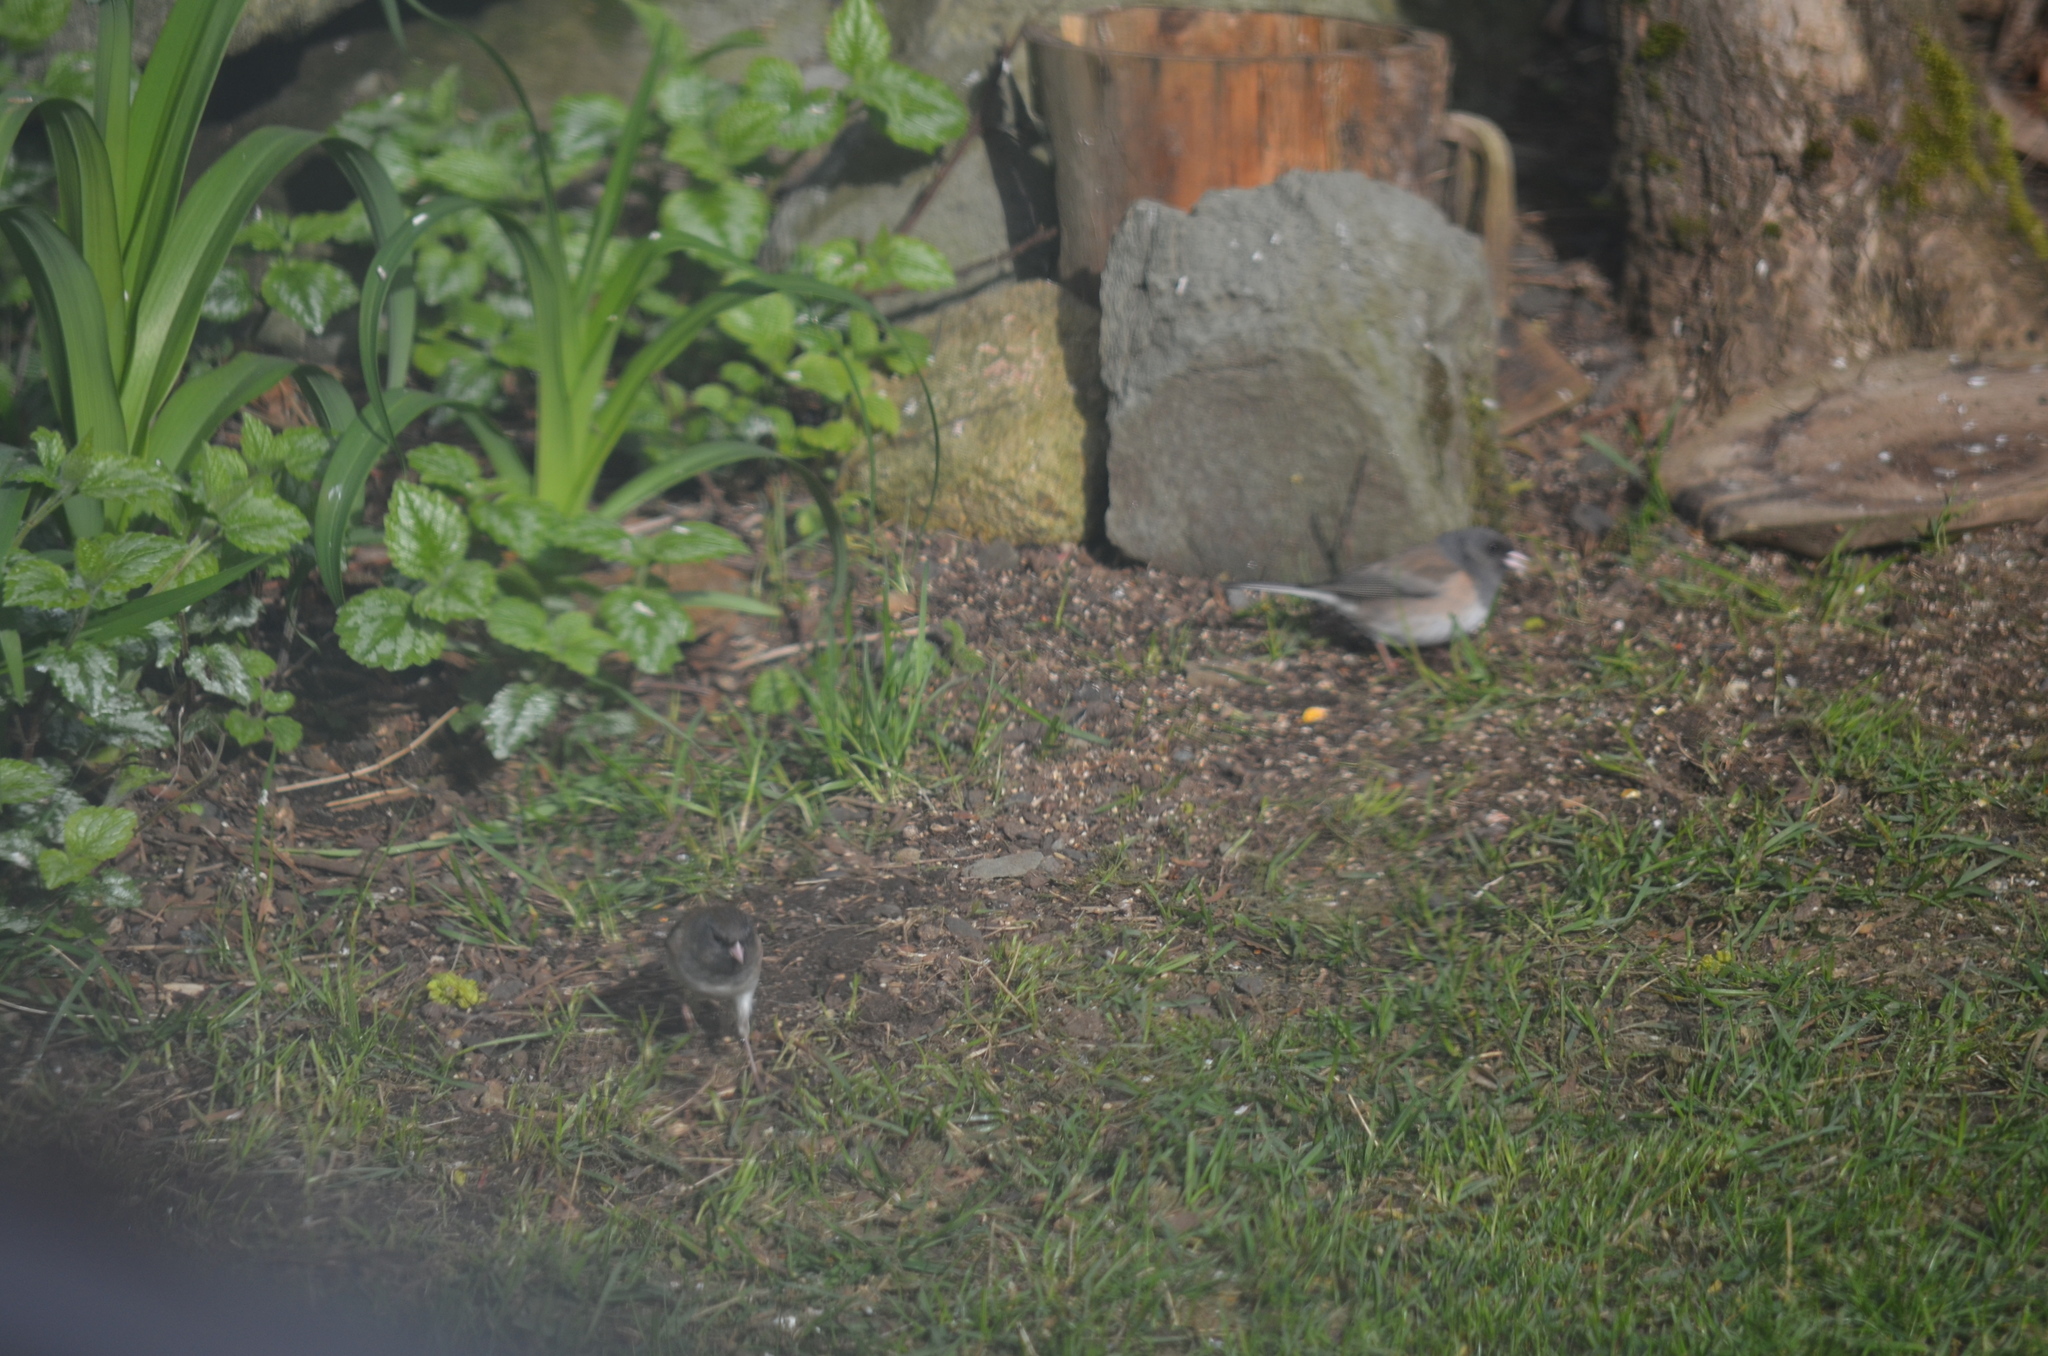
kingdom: Animalia
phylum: Chordata
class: Aves
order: Passeriformes
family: Passerellidae
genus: Junco
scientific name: Junco hyemalis
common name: Dark-eyed junco
